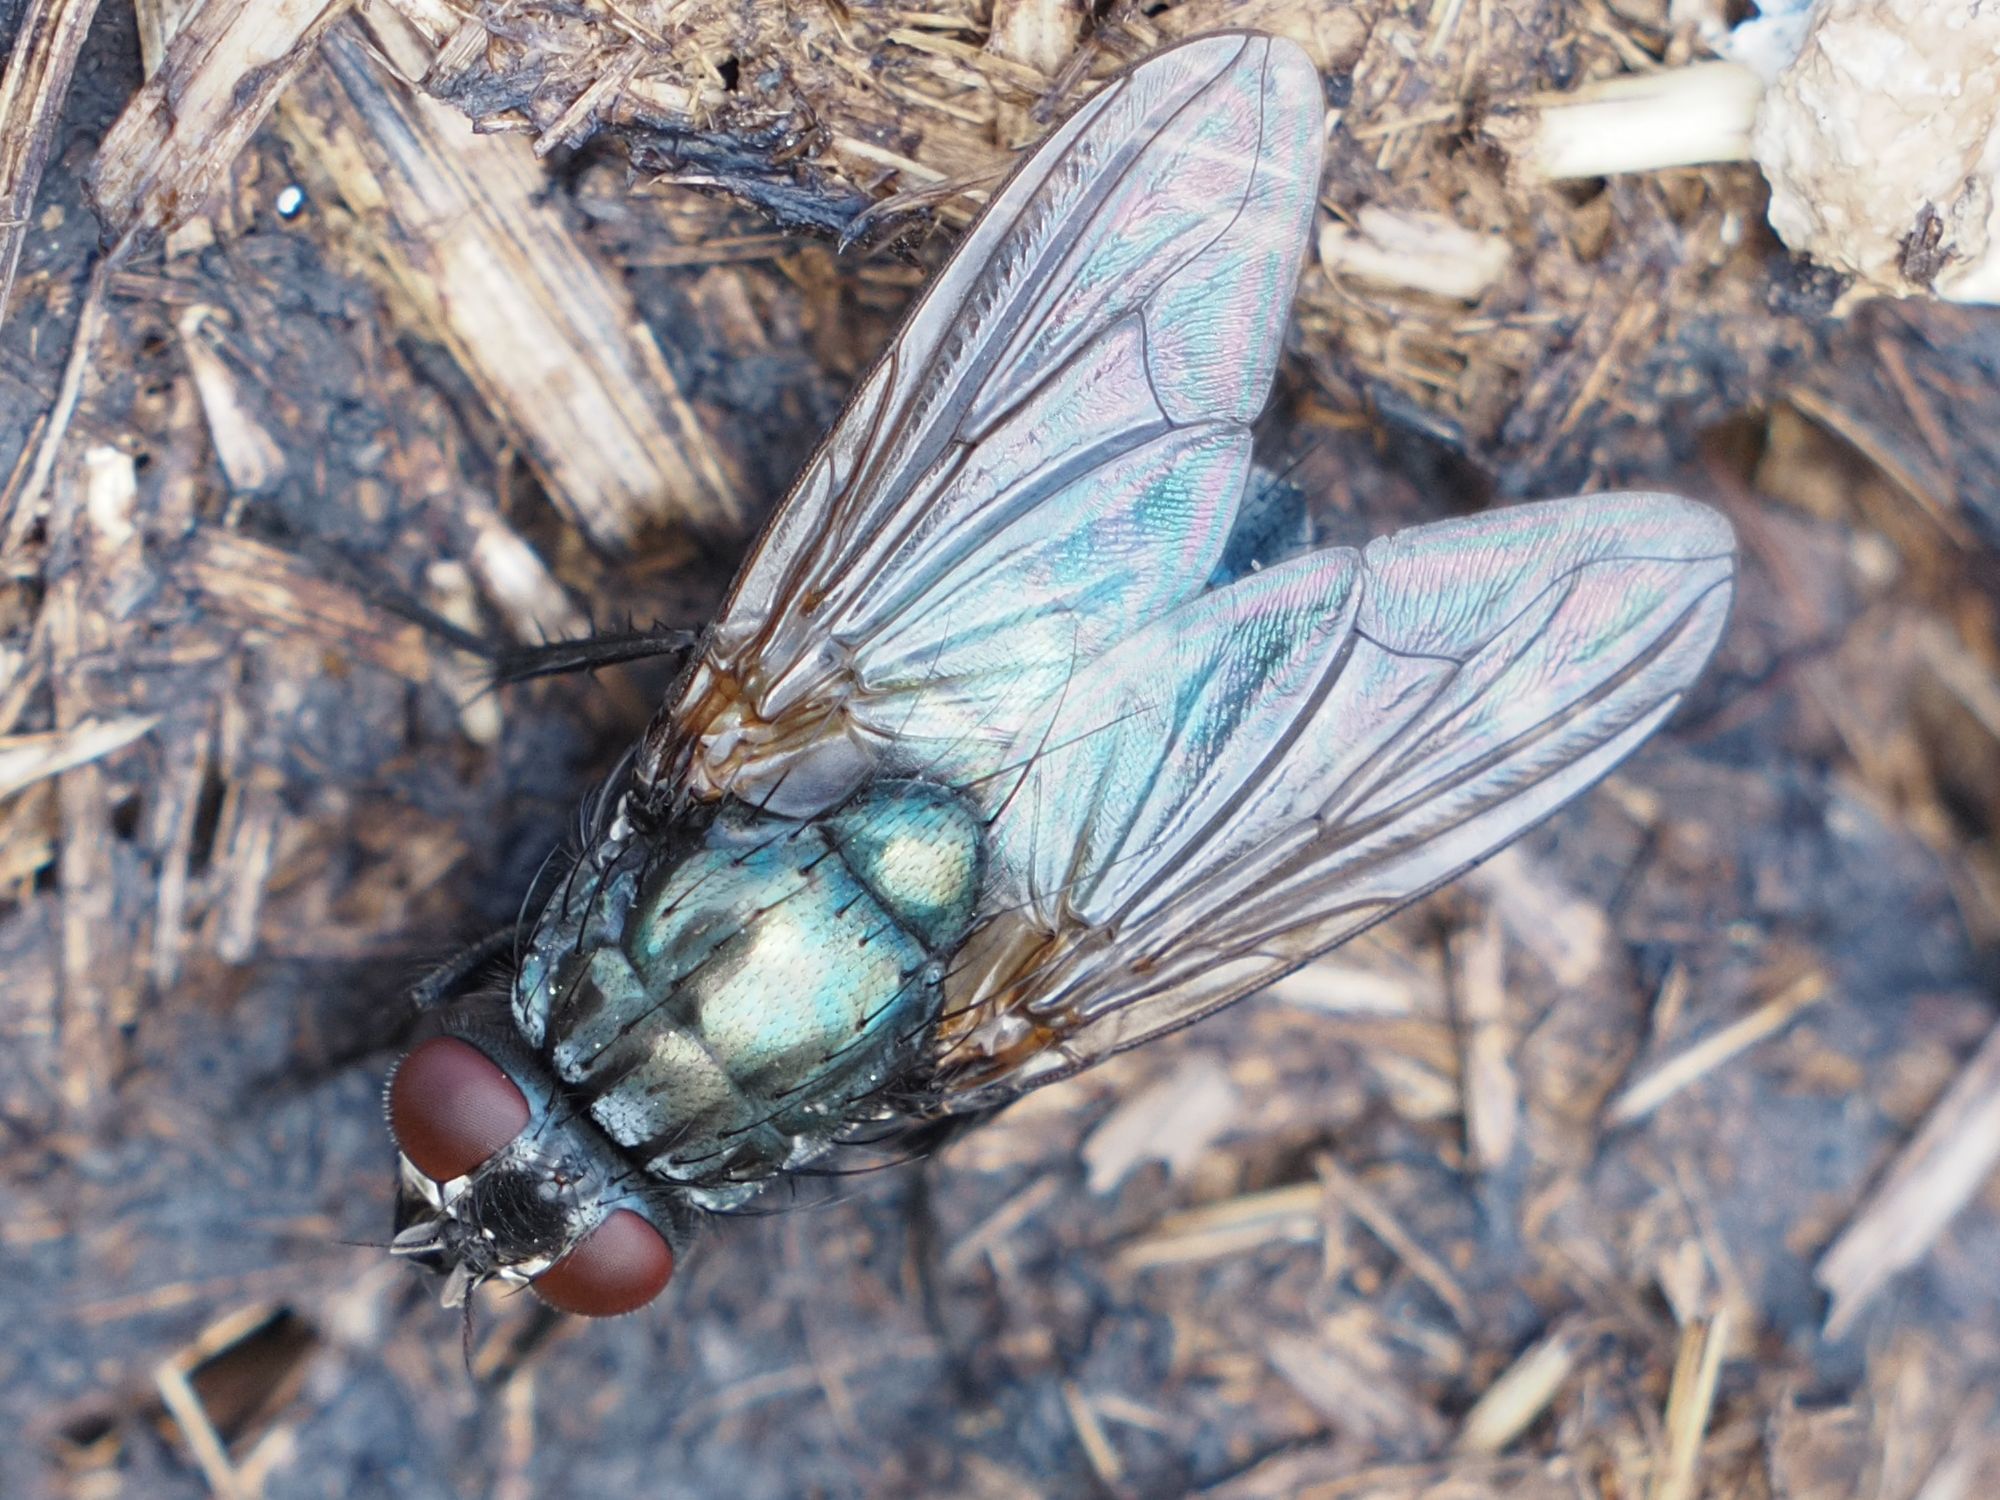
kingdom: Animalia
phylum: Arthropoda
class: Insecta
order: Diptera
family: Muscidae
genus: Dasyphora
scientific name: Dasyphora zimini
